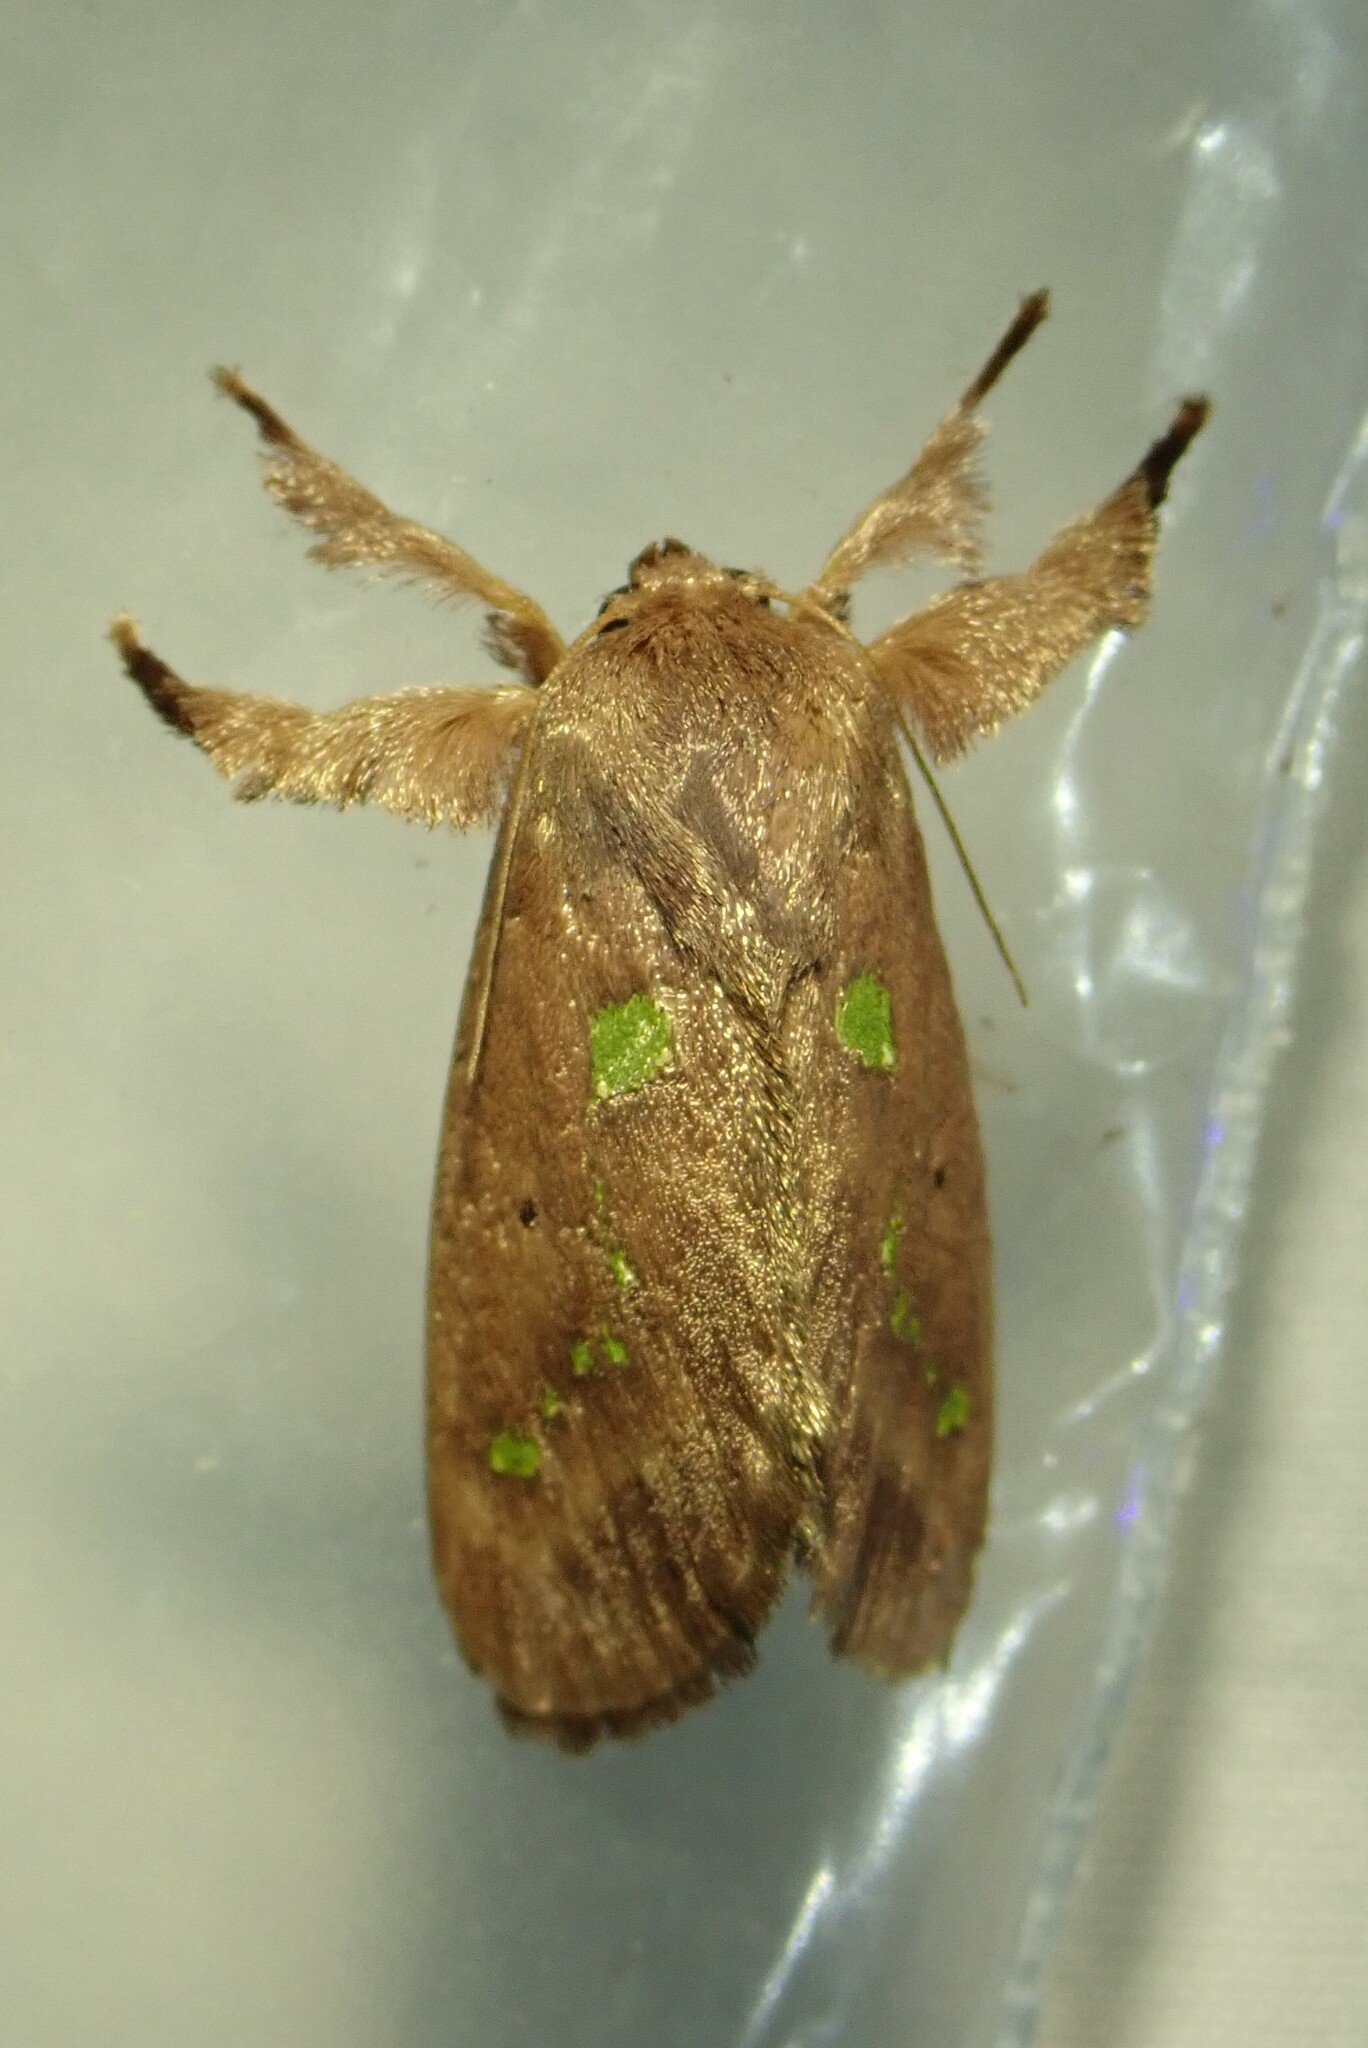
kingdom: Animalia
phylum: Arthropoda
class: Insecta
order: Lepidoptera
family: Limacodidae
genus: Euclea
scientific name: Euclea norba
